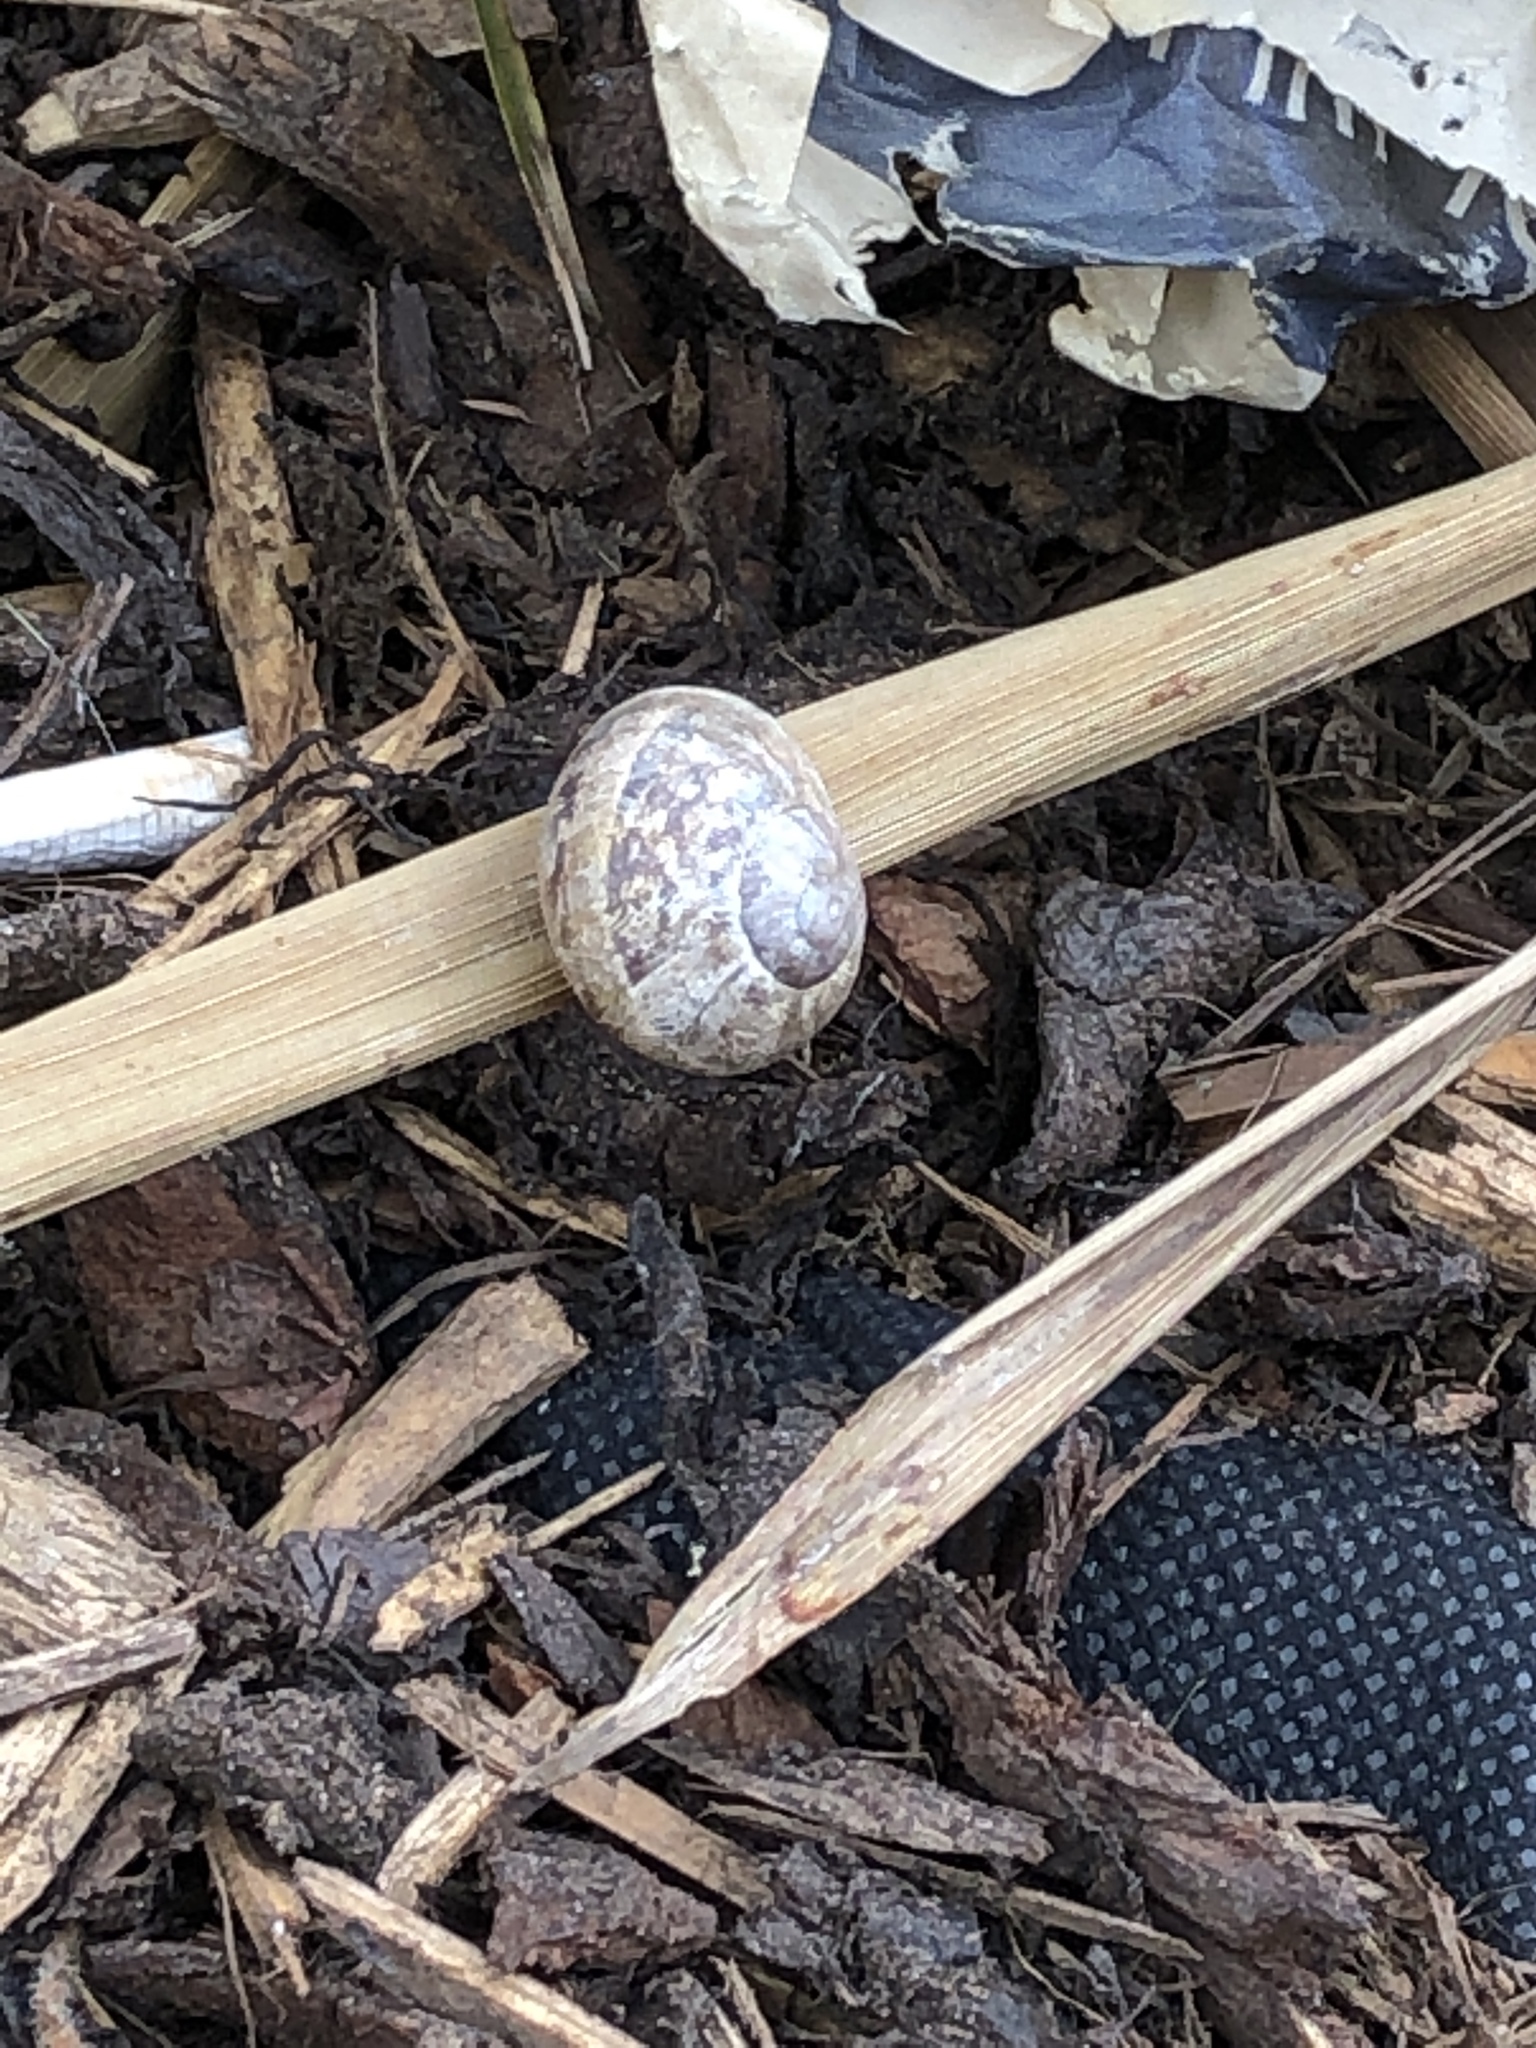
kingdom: Animalia
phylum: Mollusca
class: Gastropoda
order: Stylommatophora
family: Helicidae
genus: Cornu
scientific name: Cornu aspersum
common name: Brown garden snail
